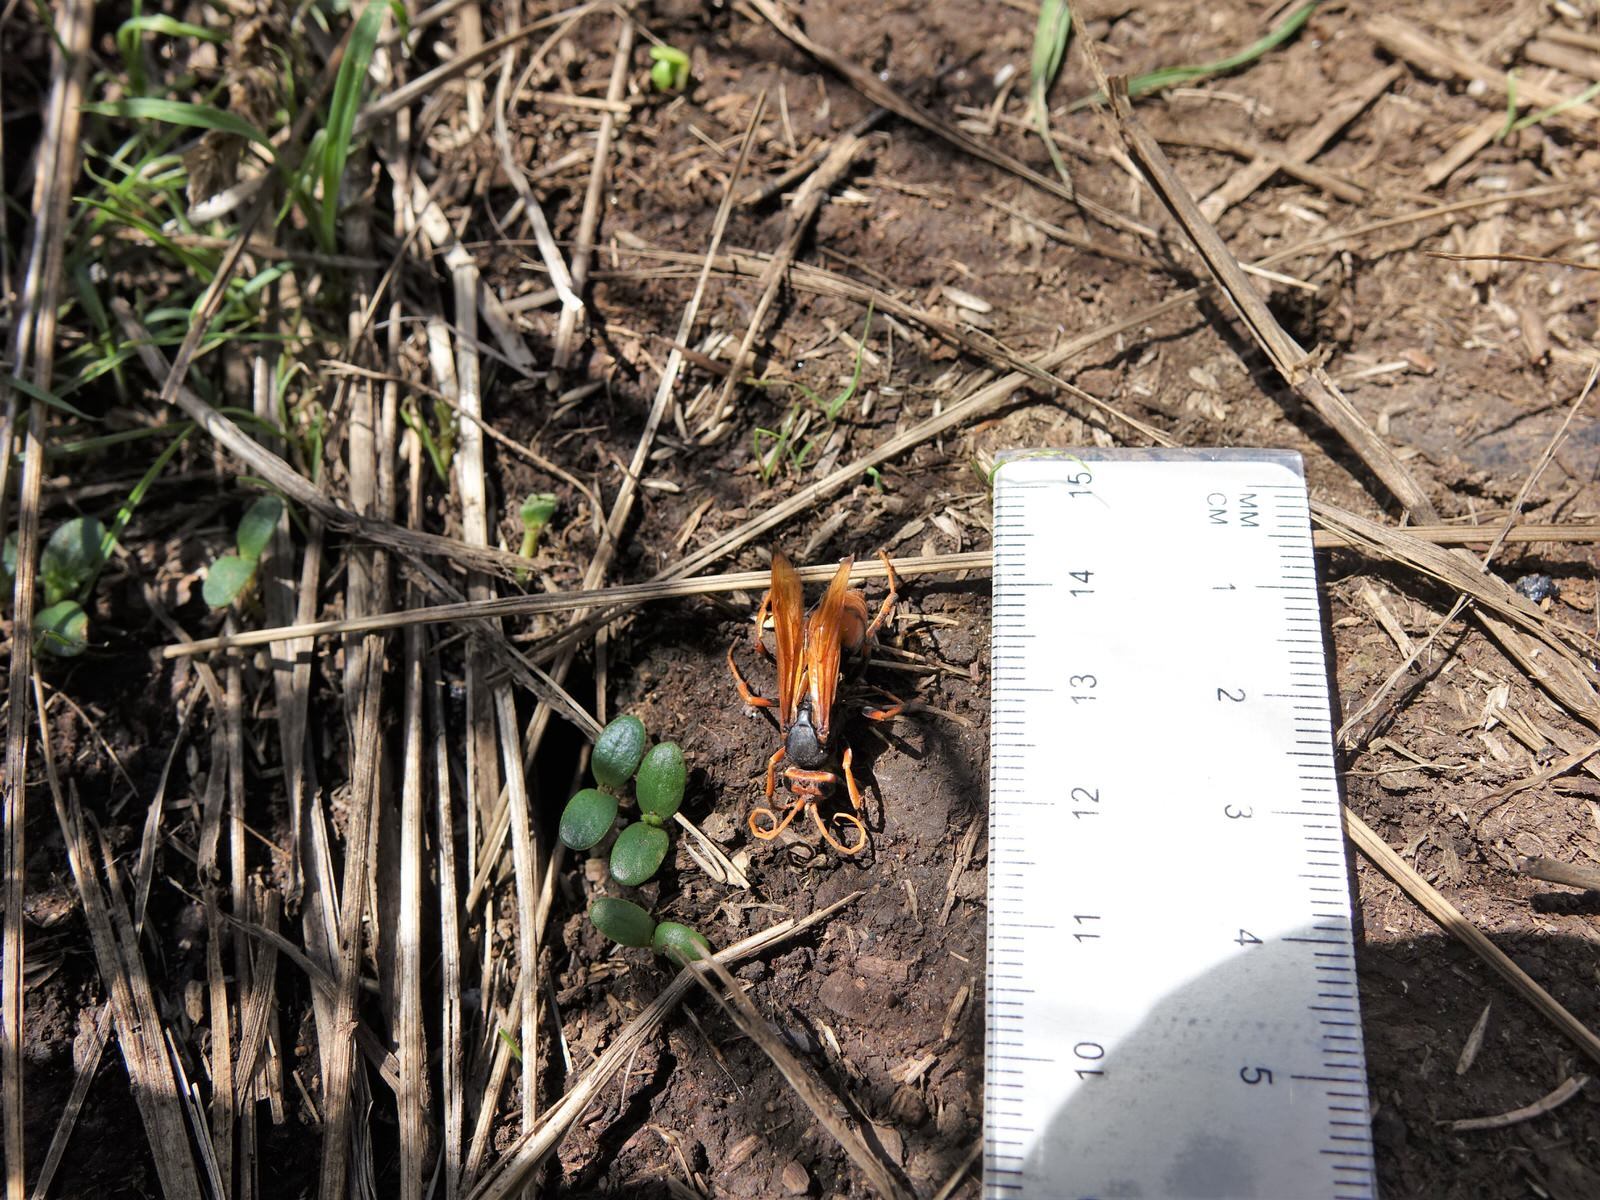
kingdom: Animalia
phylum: Arthropoda
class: Insecta
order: Hymenoptera
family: Pompilidae
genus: Cryptocheilus
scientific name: Cryptocheilus australis
